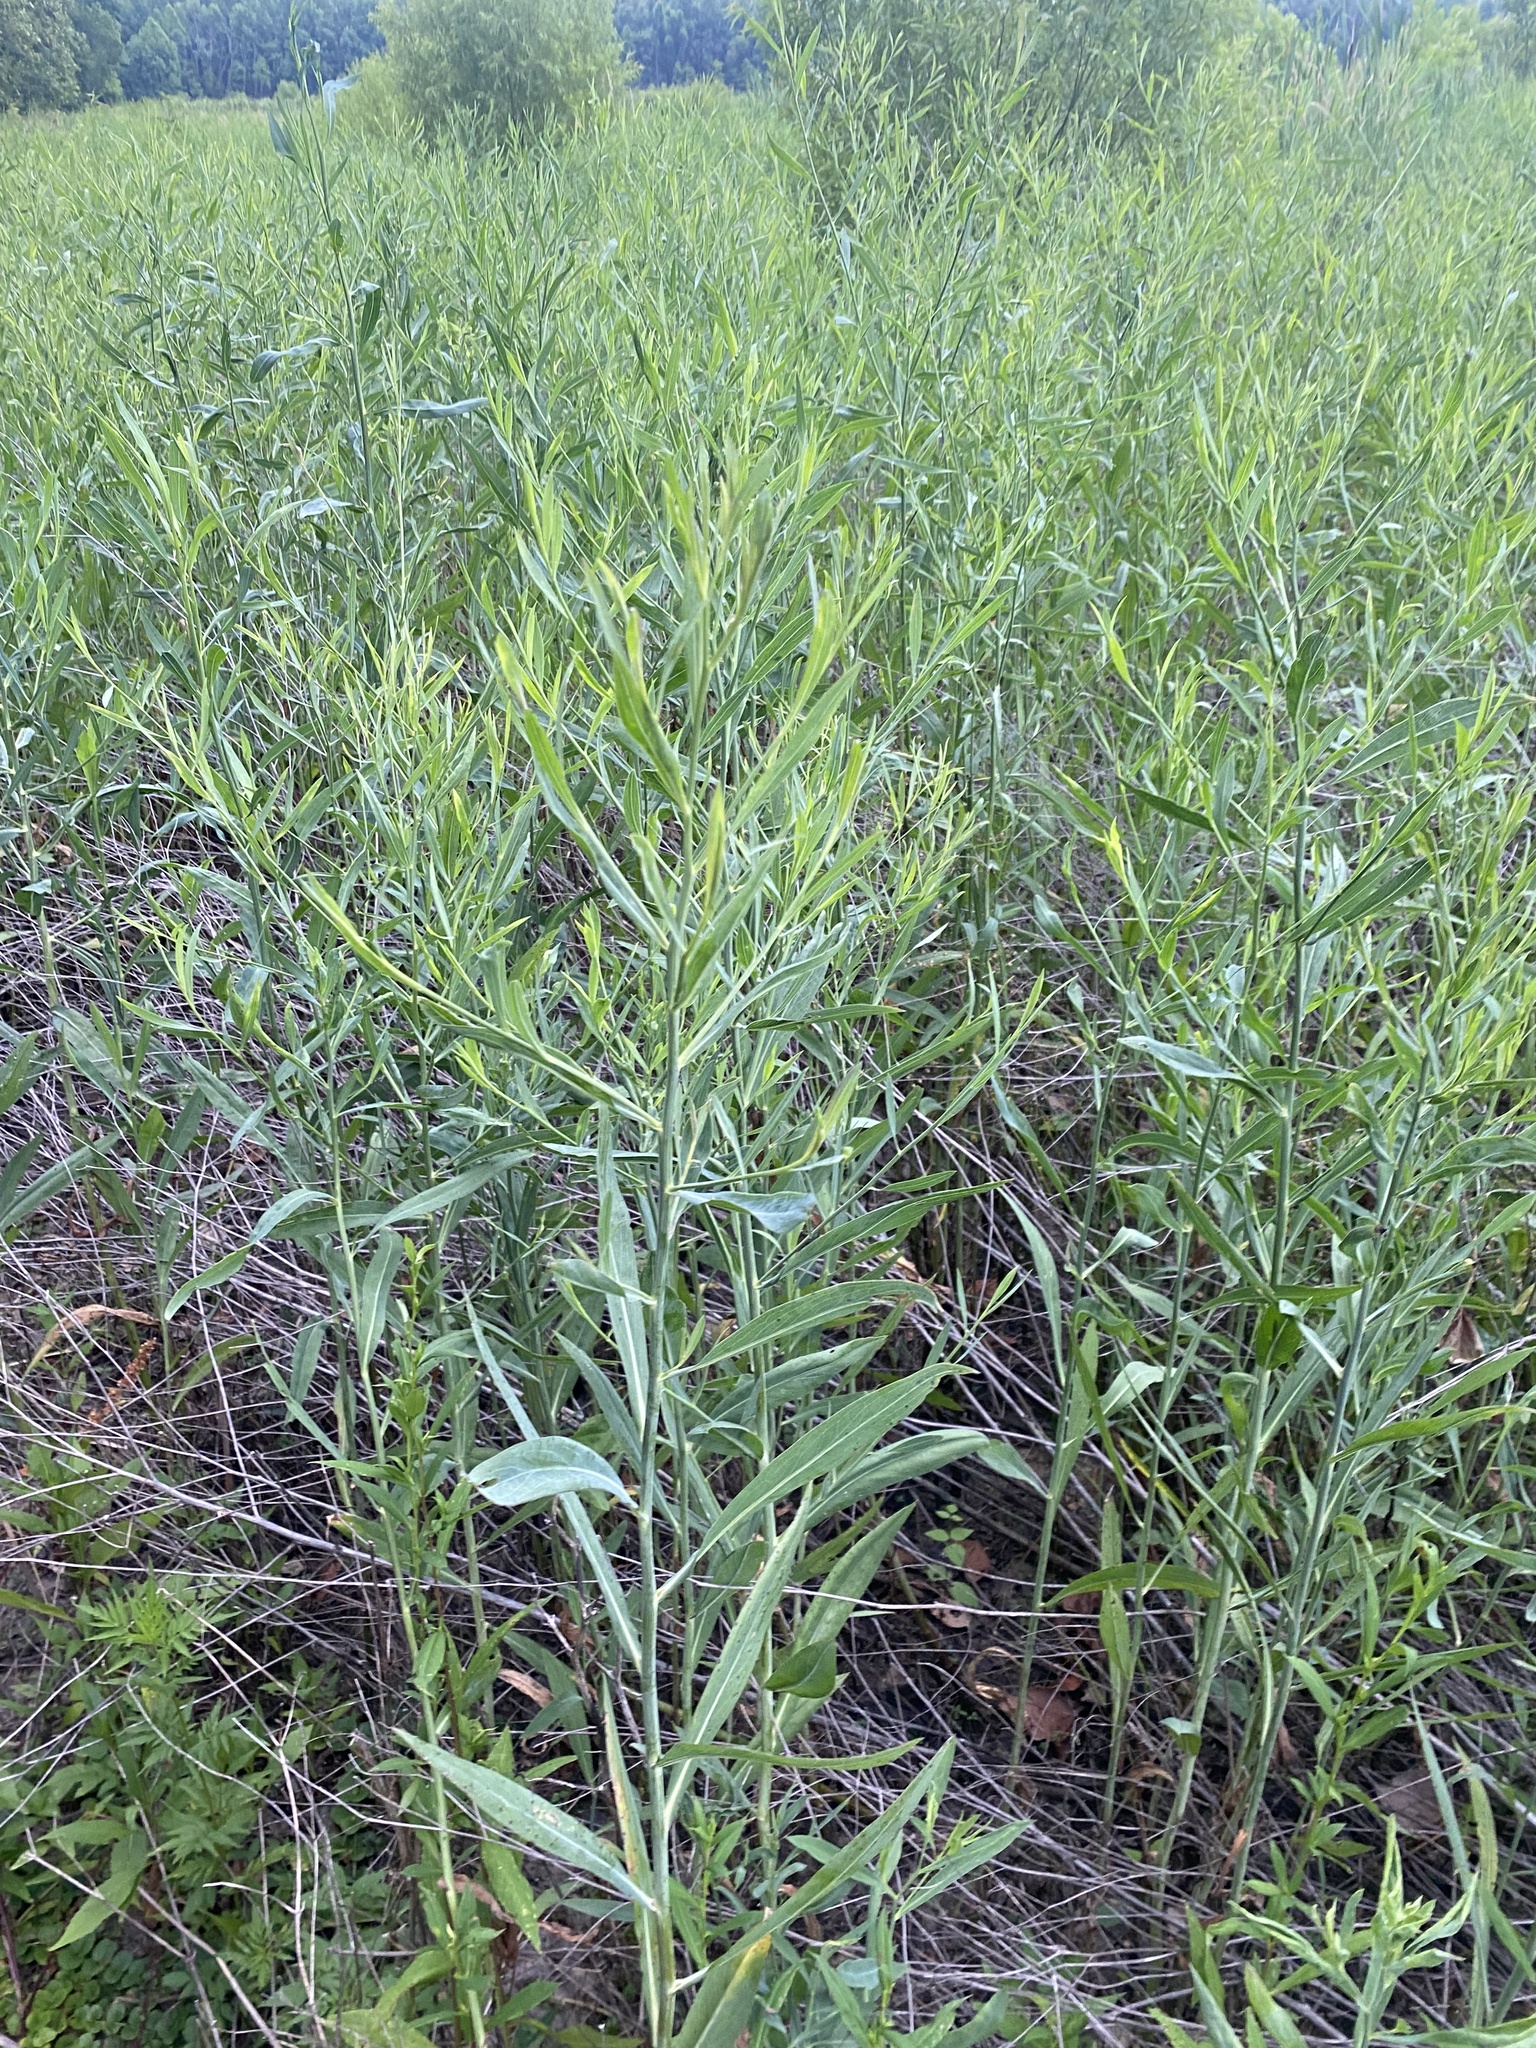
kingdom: Plantae
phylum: Tracheophyta
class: Magnoliopsida
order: Asterales
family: Asteraceae
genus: Boltonia
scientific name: Boltonia asteroides
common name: False chamomile
